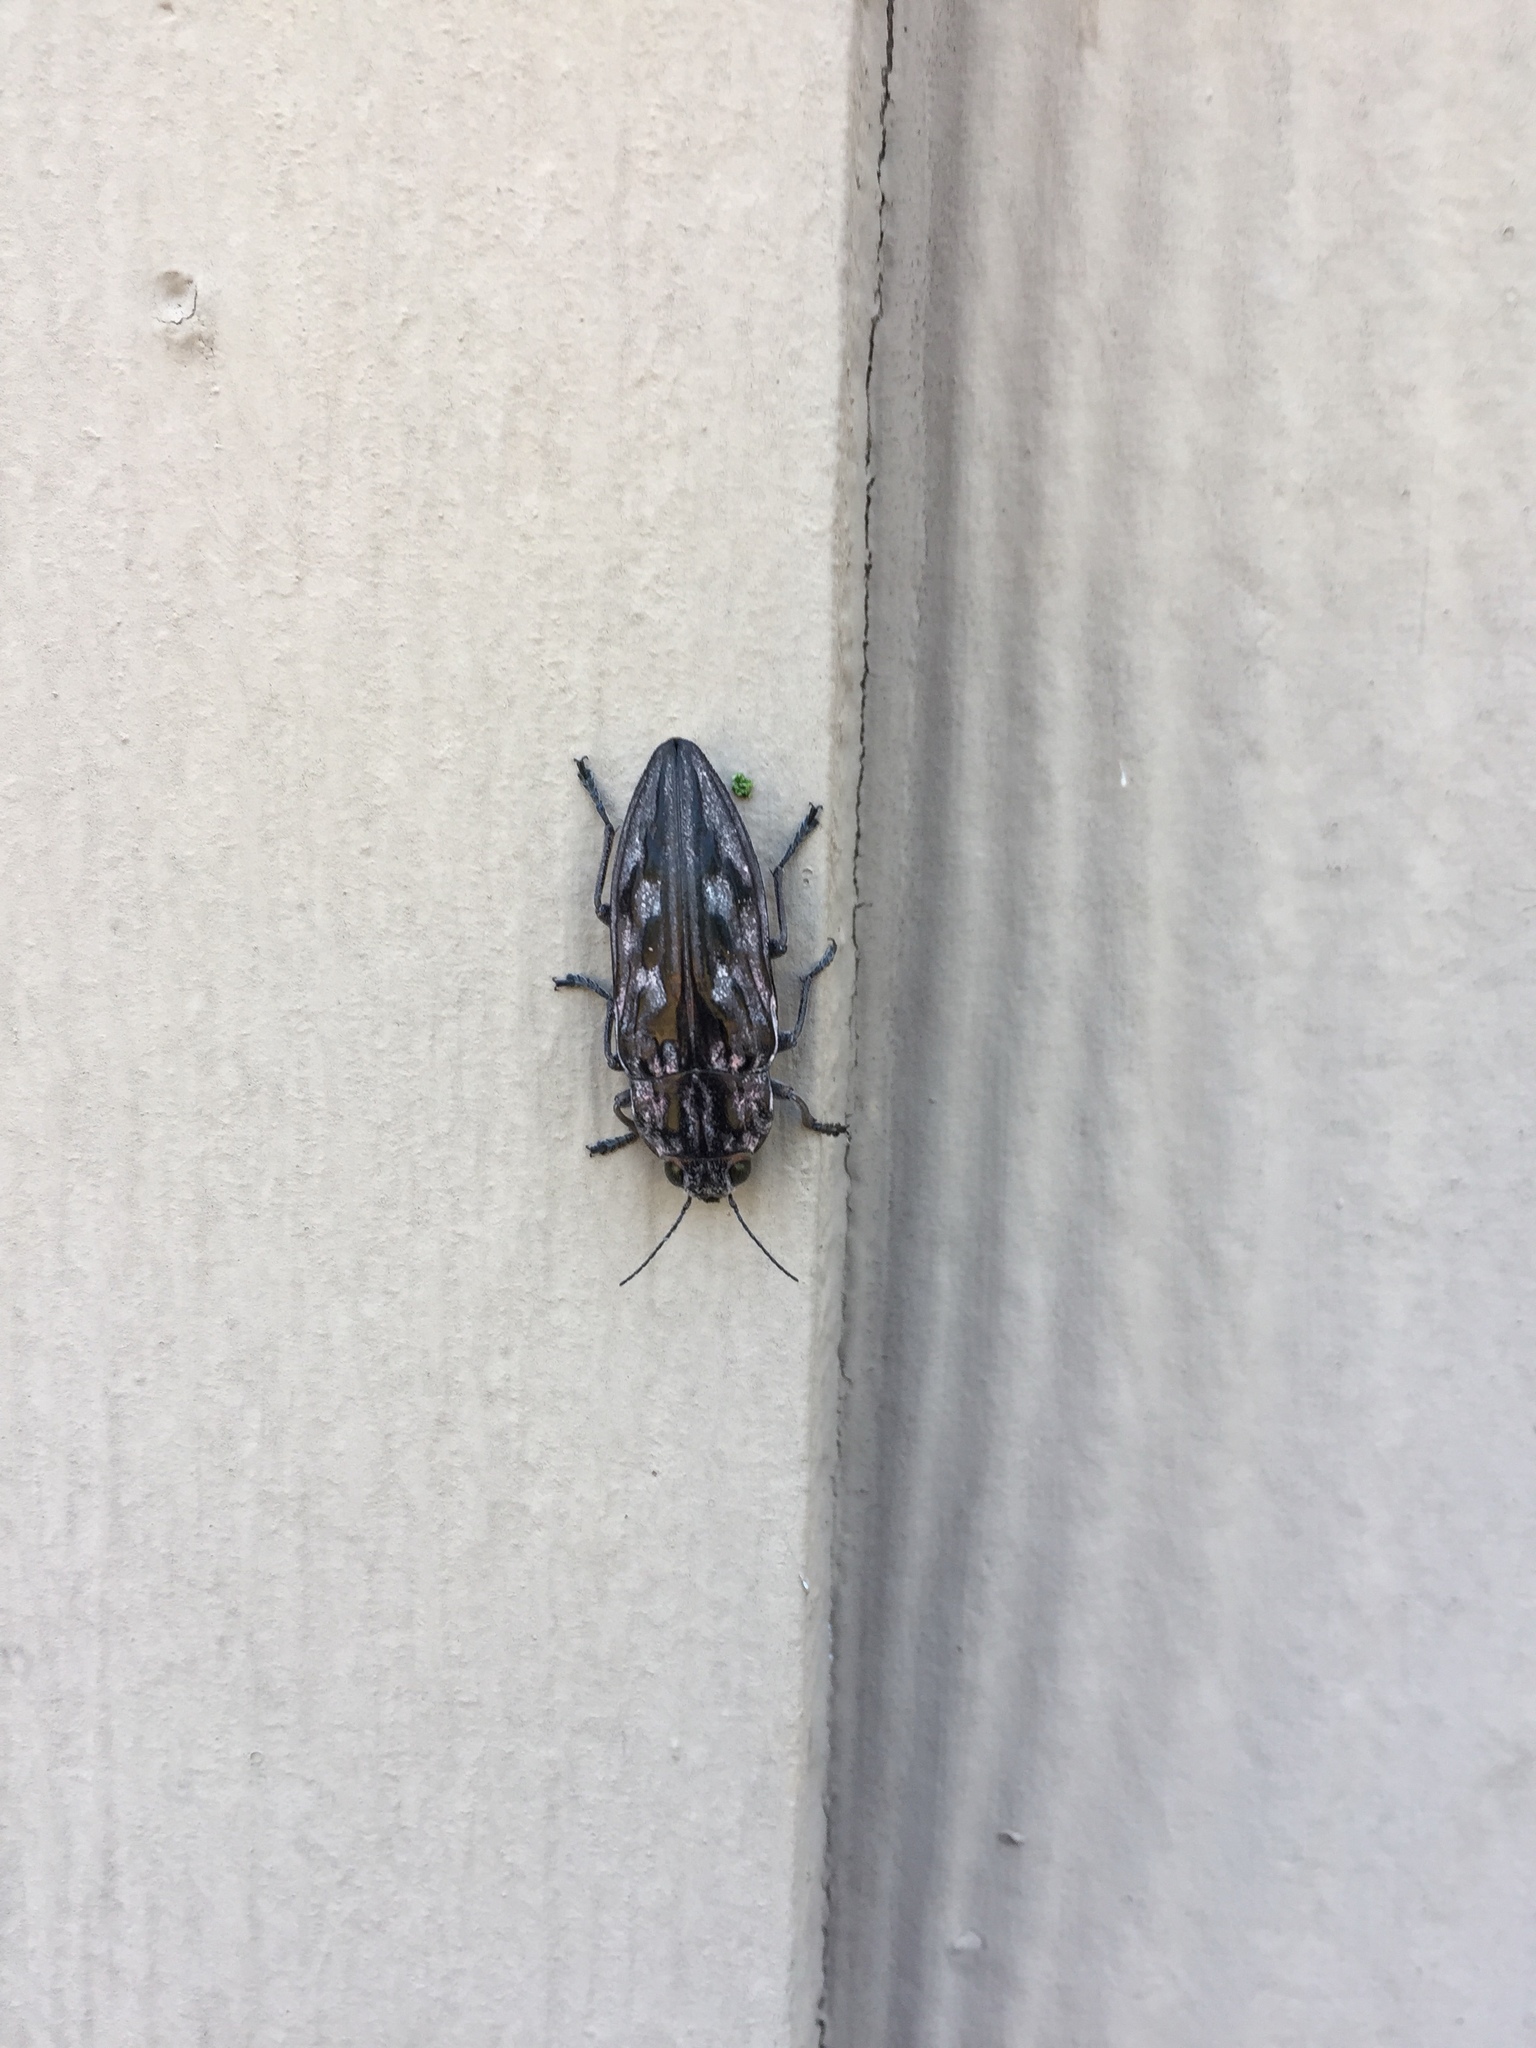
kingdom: Animalia
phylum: Arthropoda
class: Insecta
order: Coleoptera
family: Buprestidae
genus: Chalcophora
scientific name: Chalcophora virginiensis
